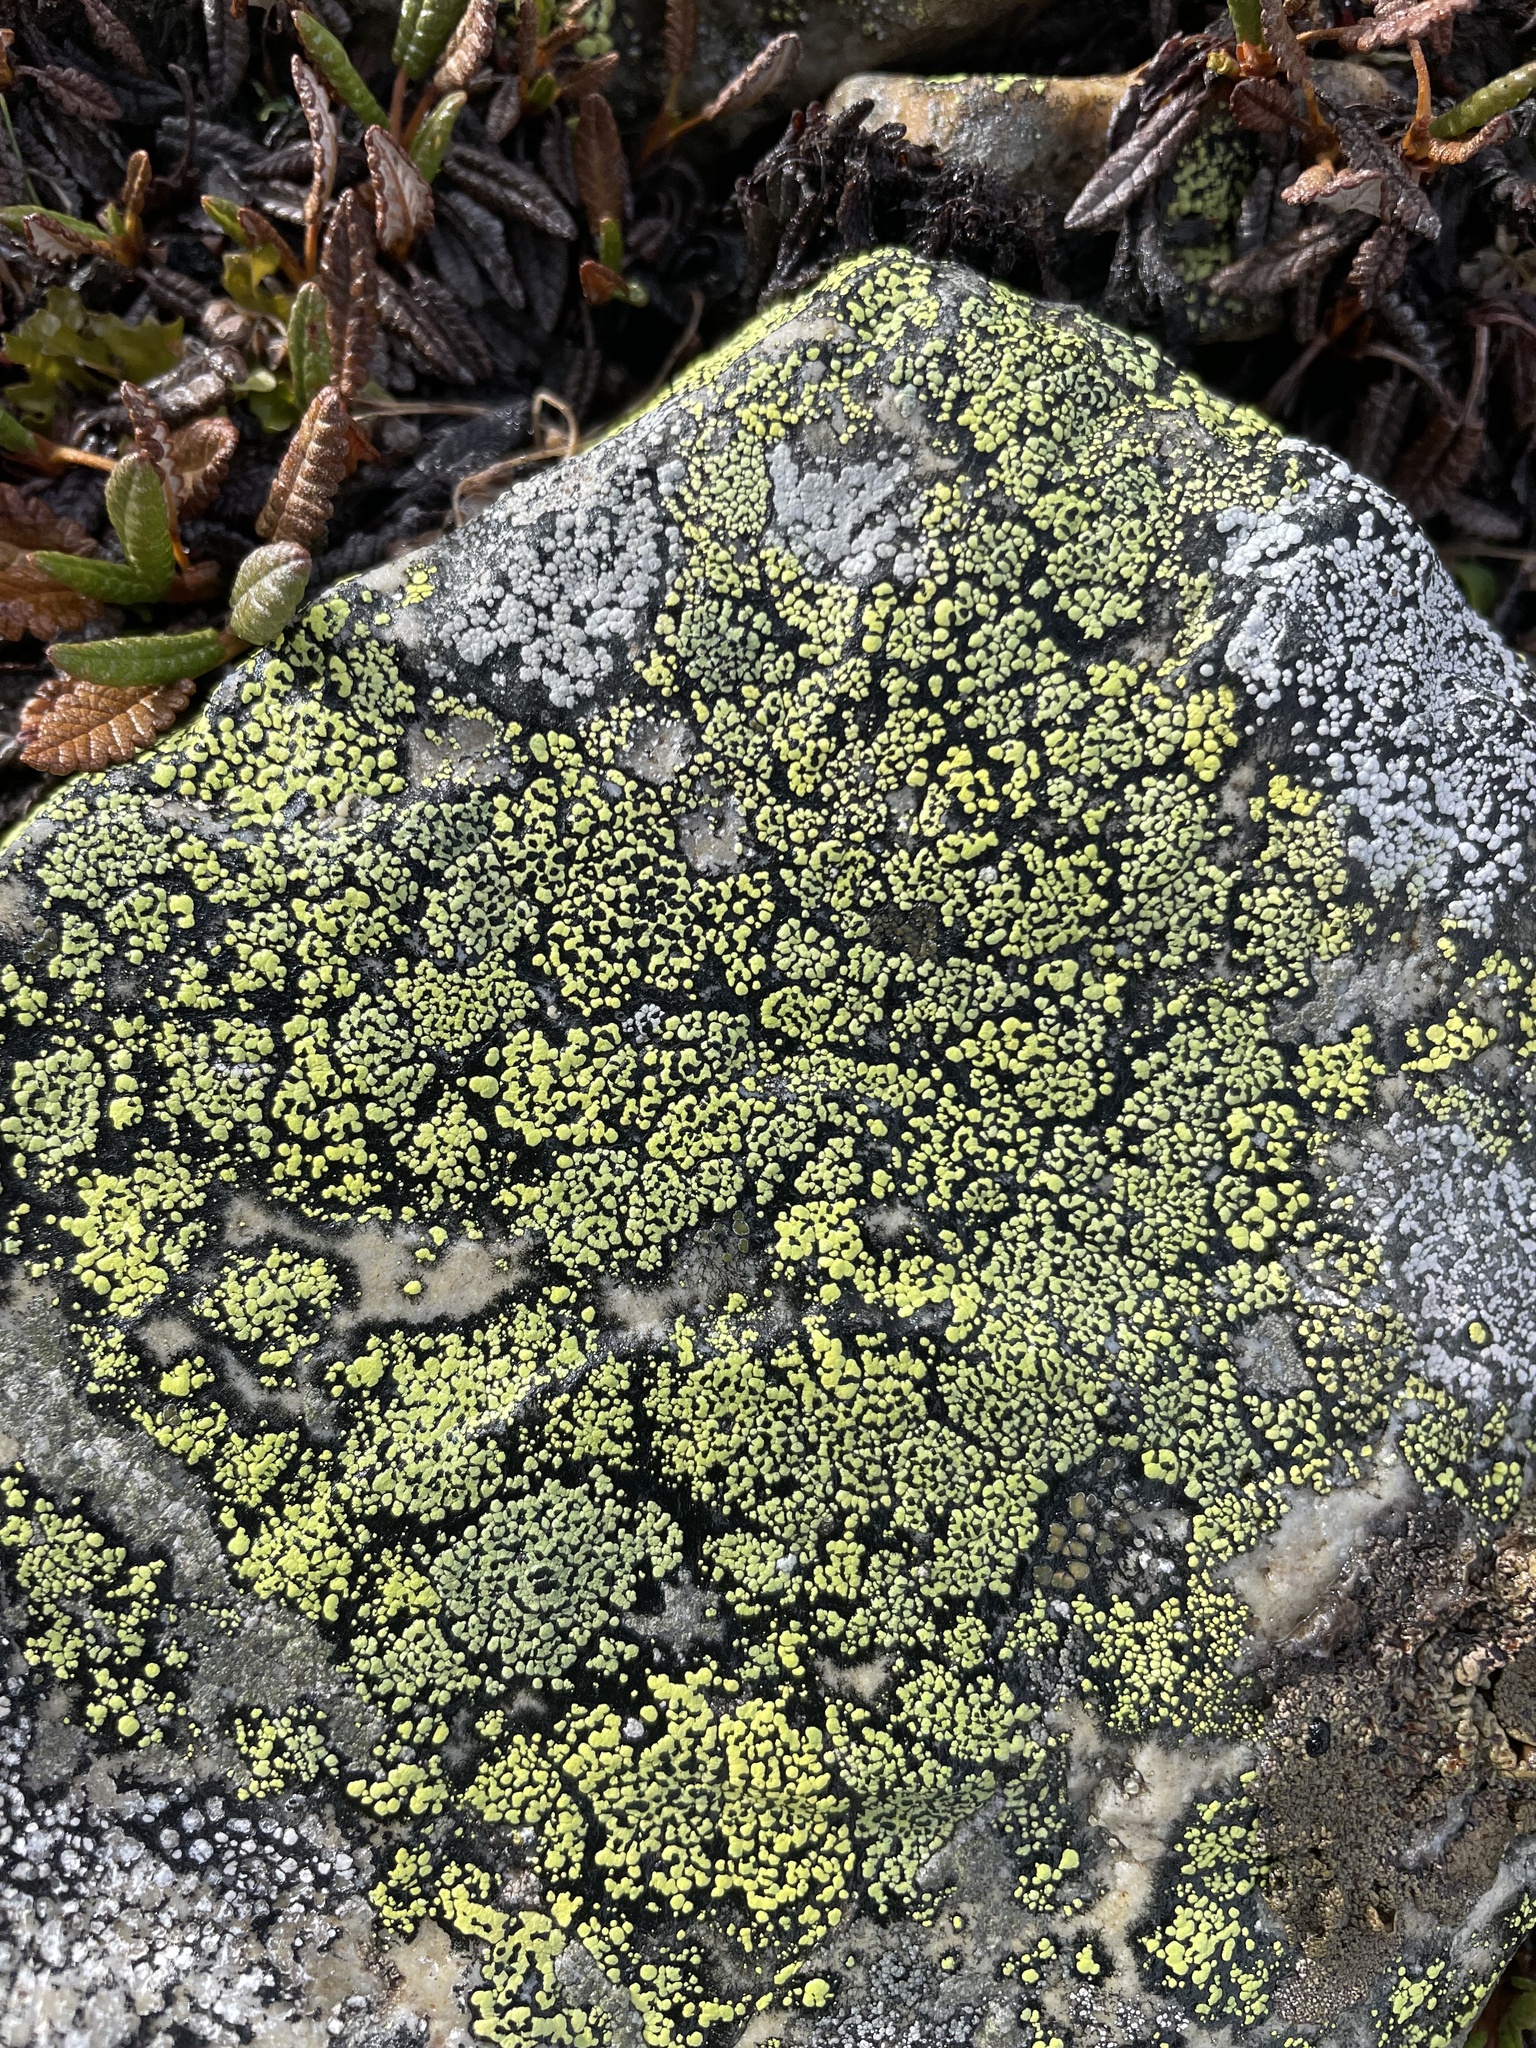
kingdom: Fungi
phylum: Ascomycota
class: Lecanoromycetes
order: Rhizocarpales
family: Rhizocarpaceae
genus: Rhizocarpon
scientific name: Rhizocarpon geographicum
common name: Yellow map lichen
